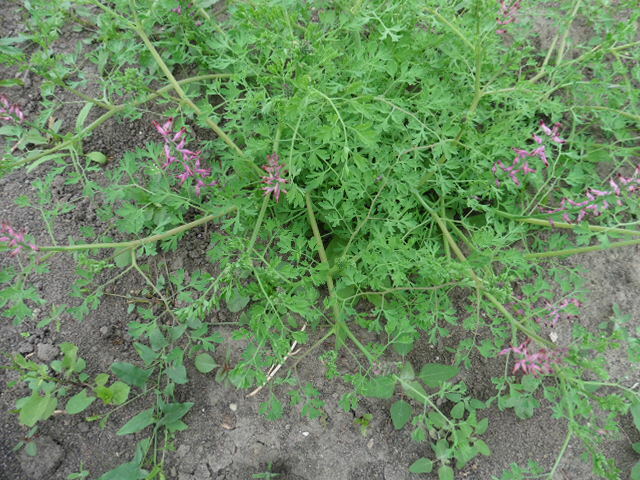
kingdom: Plantae
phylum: Tracheophyta
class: Magnoliopsida
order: Ranunculales
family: Papaveraceae
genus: Fumaria
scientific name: Fumaria officinalis
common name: Common fumitory
